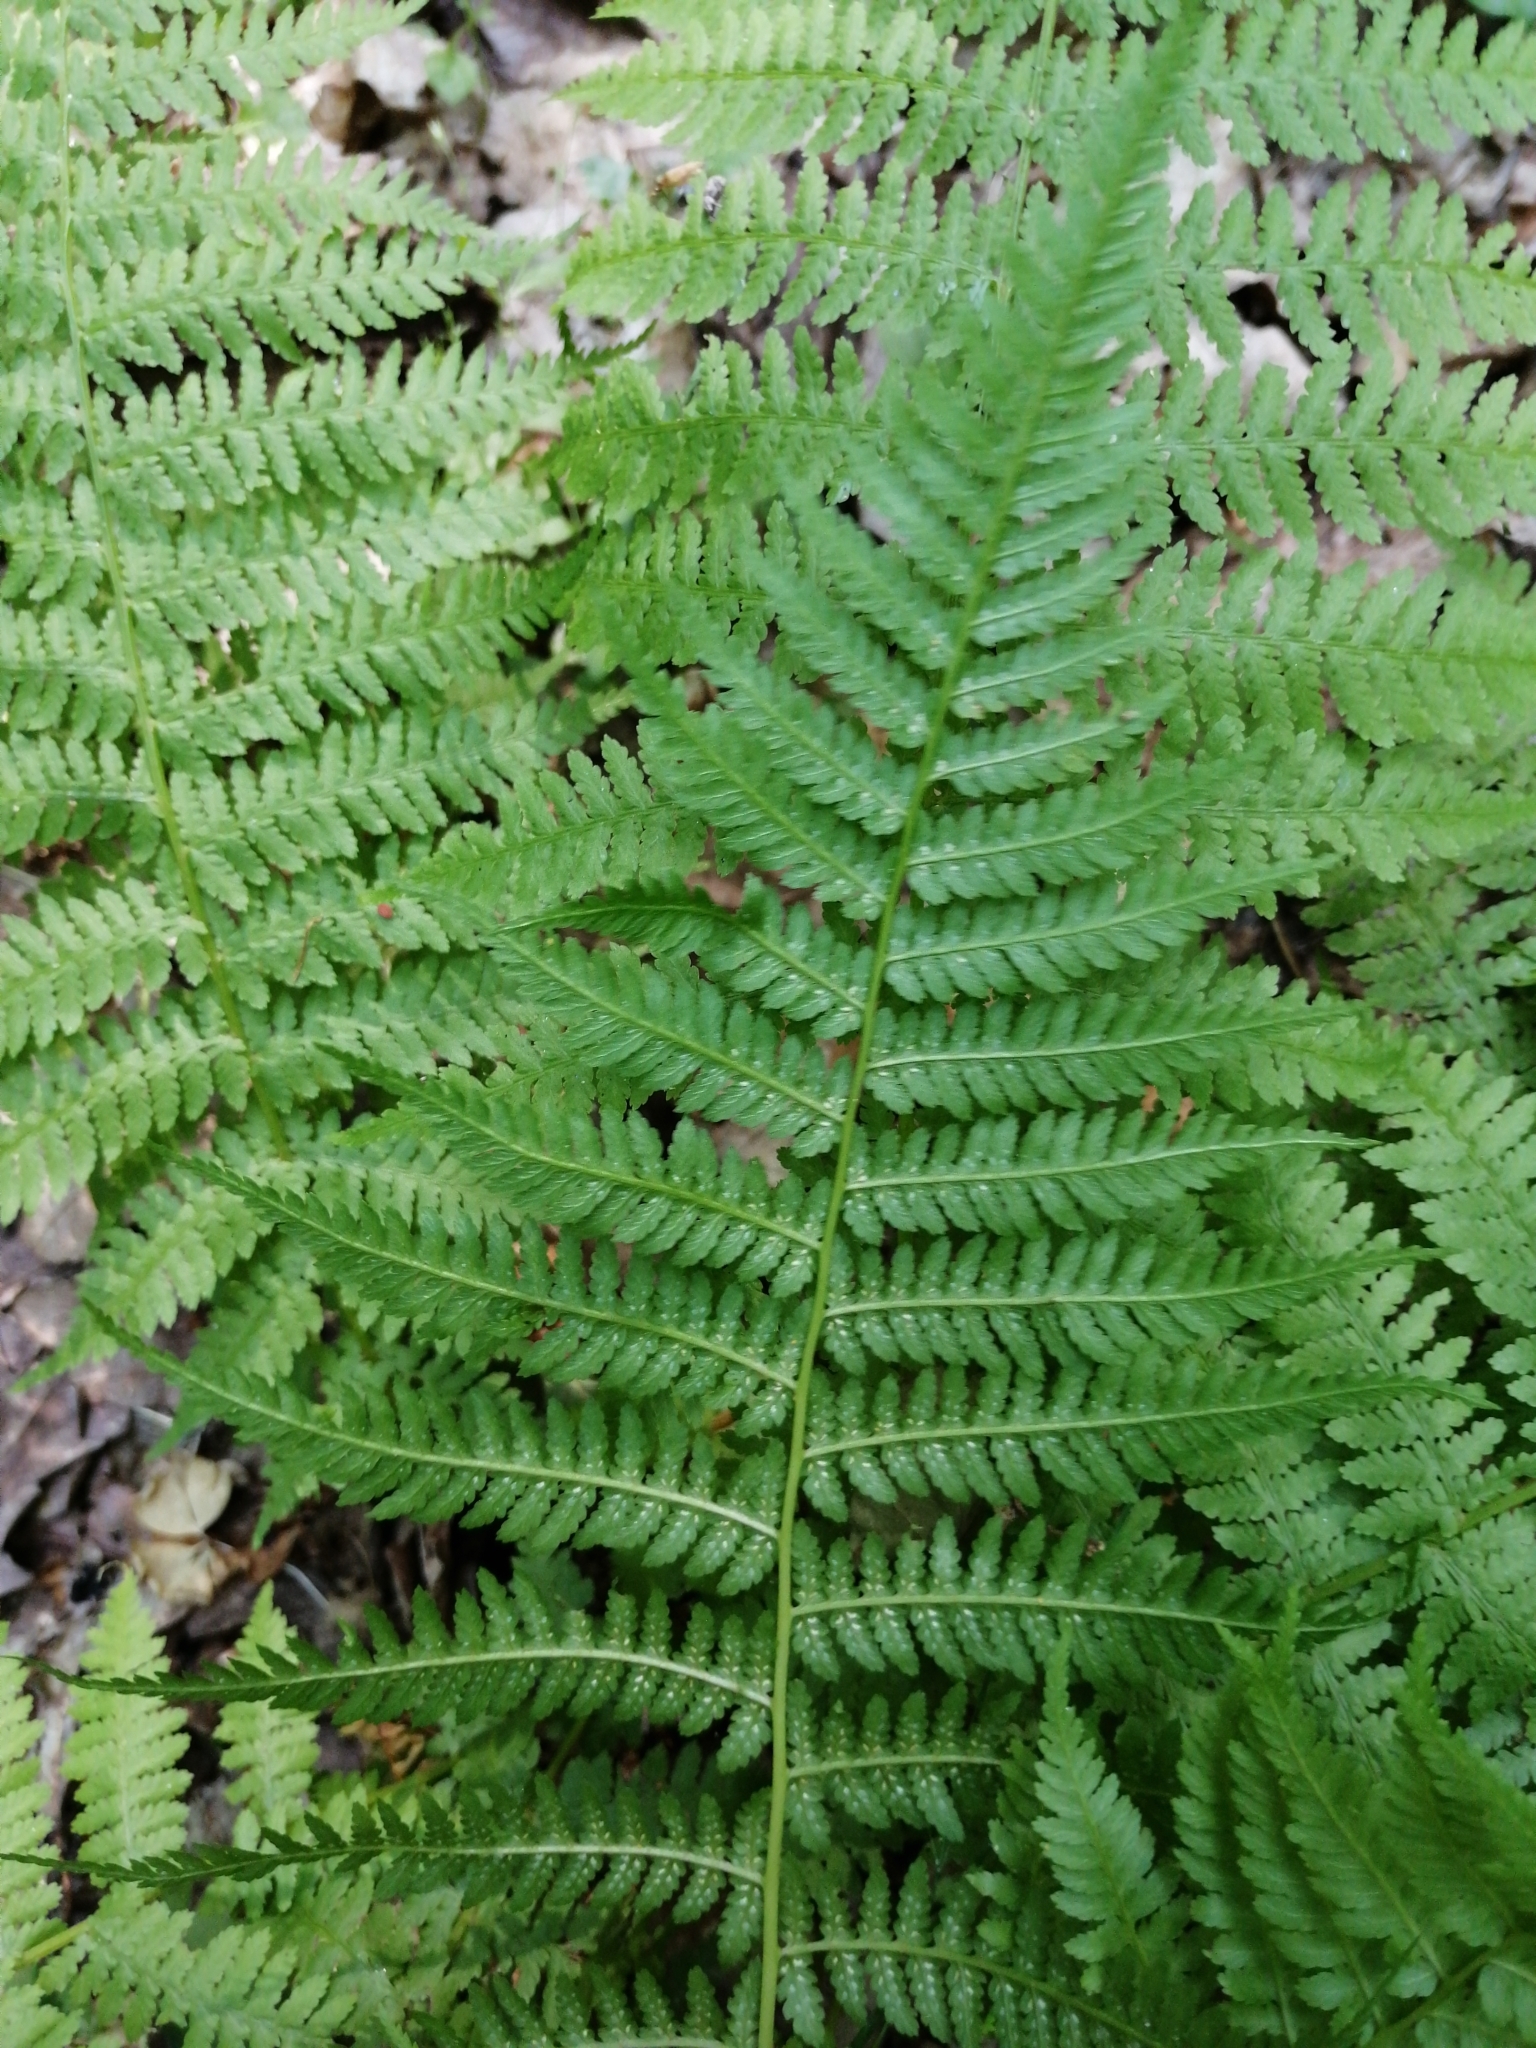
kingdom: Plantae
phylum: Tracheophyta
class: Polypodiopsida
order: Polypodiales
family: Athyriaceae
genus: Athyrium
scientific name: Athyrium filix-femina
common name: Lady fern
